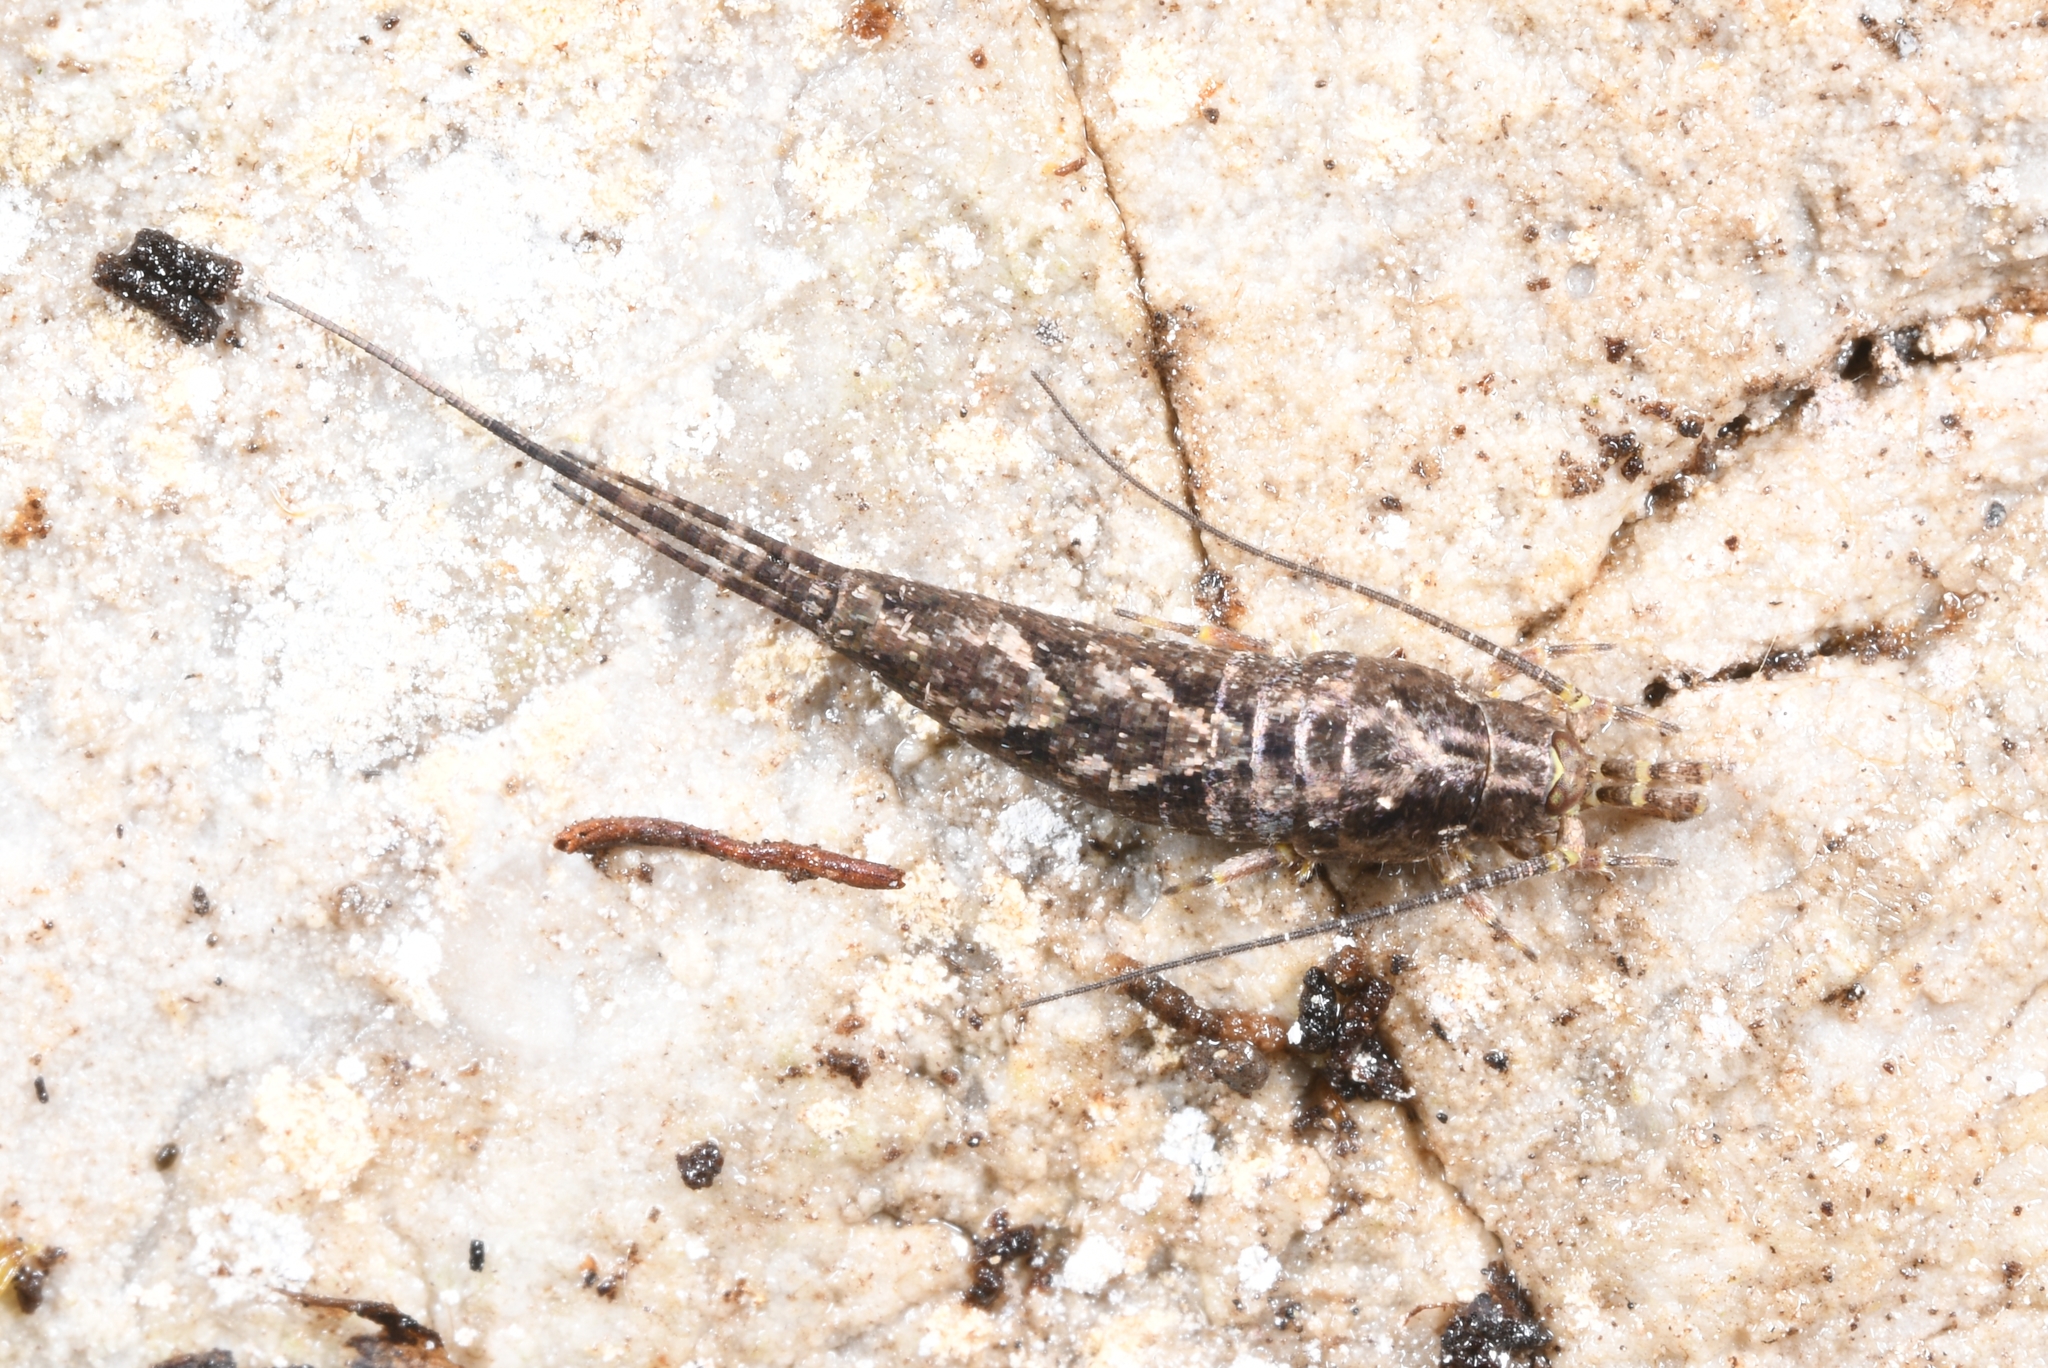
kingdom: Animalia
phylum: Arthropoda
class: Insecta
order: Archaeognatha
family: Machilidae
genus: Lepismachilis
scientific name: Lepismachilis y-signata
